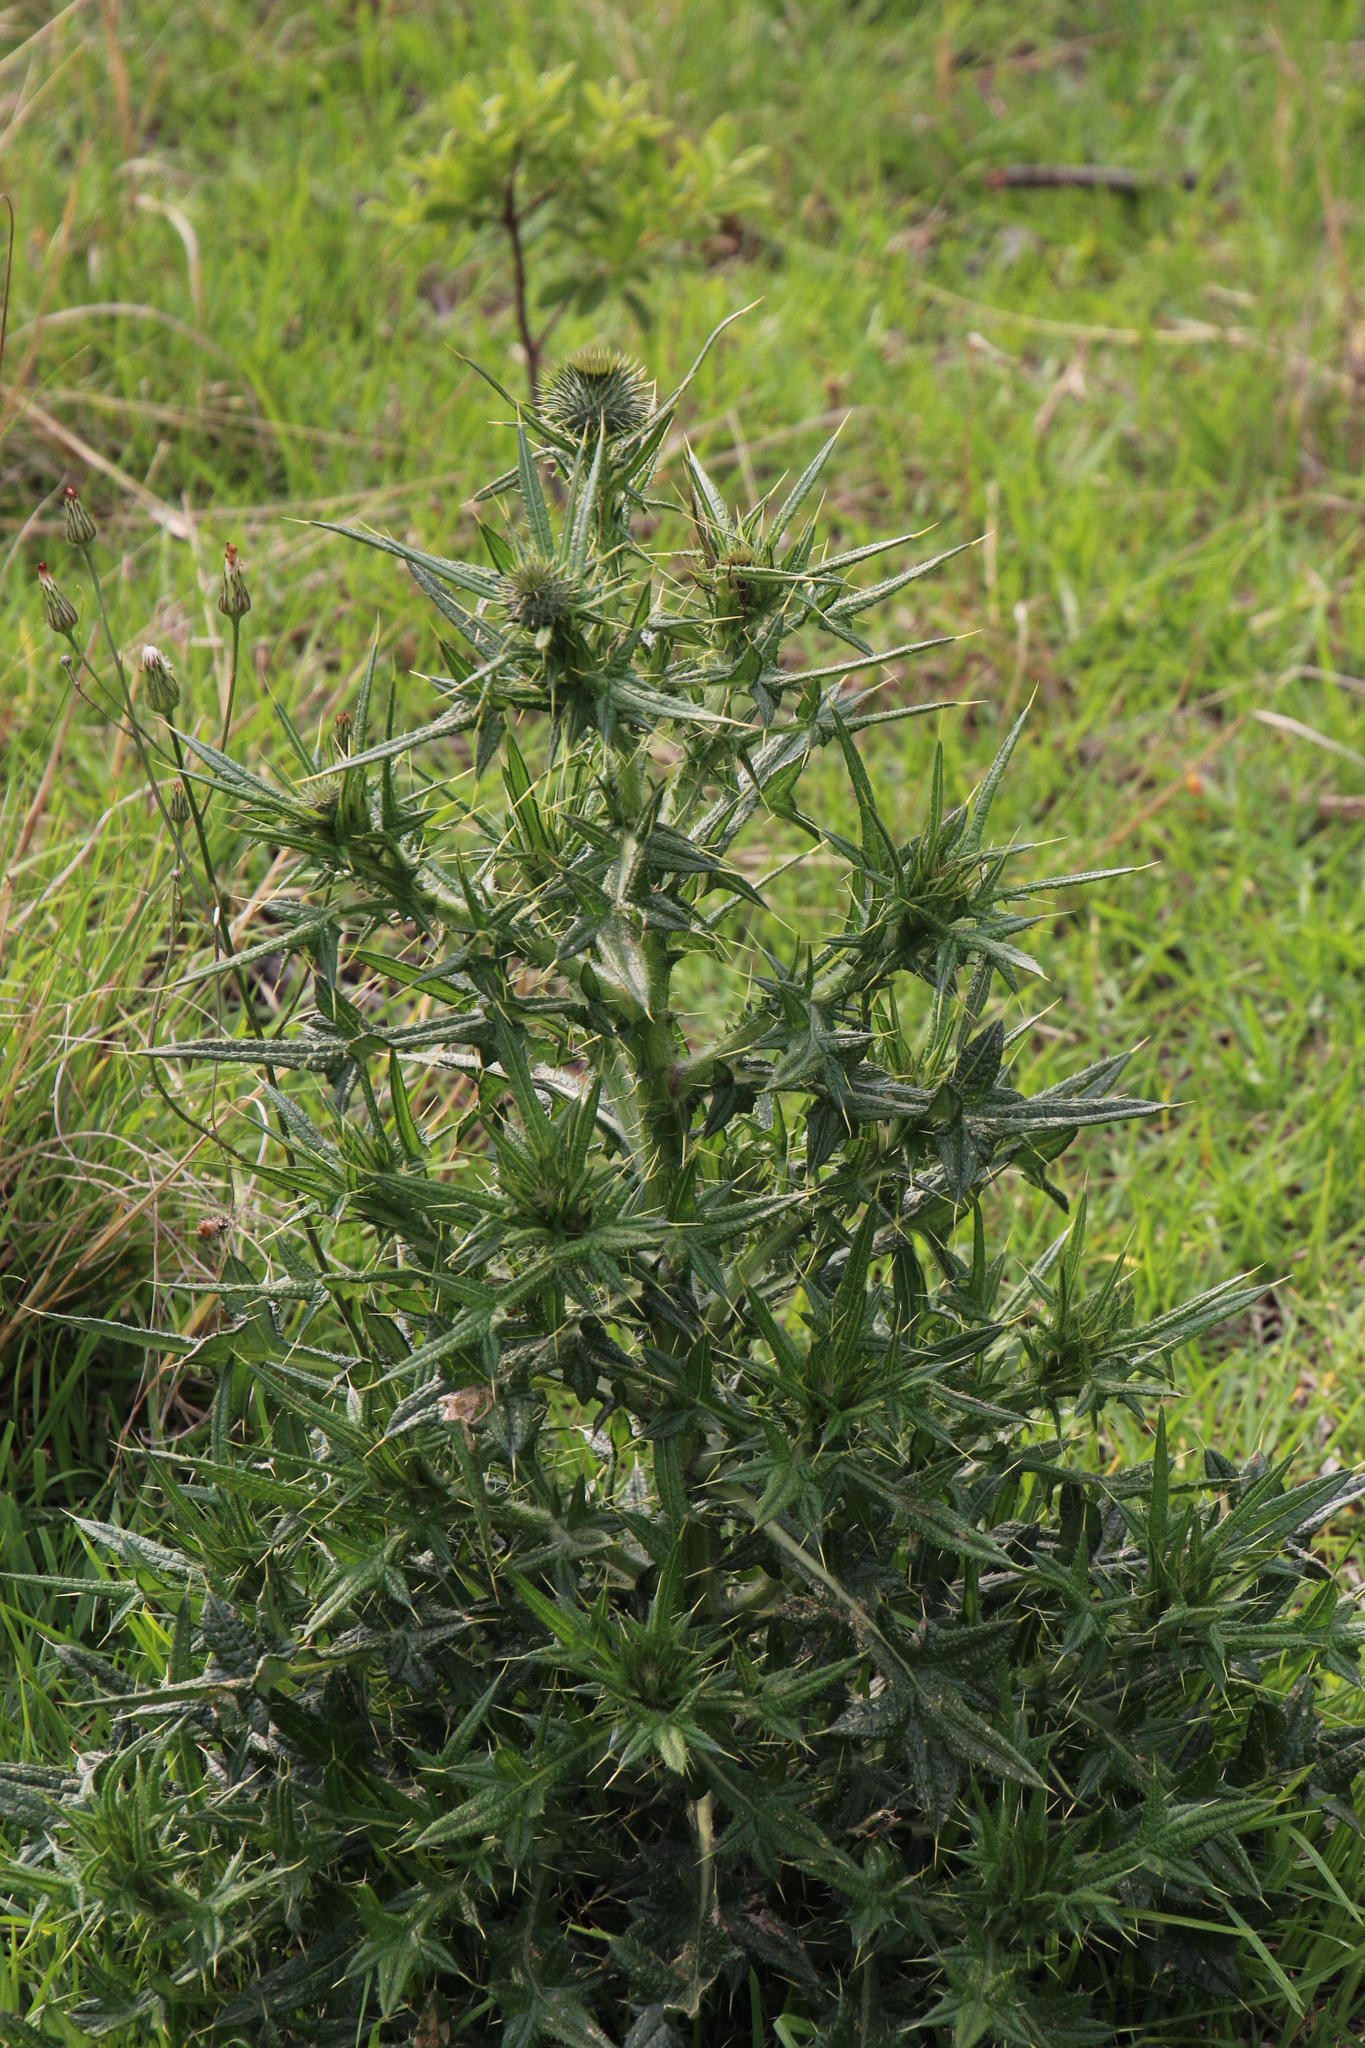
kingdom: Plantae
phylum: Tracheophyta
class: Magnoliopsida
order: Asterales
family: Asteraceae
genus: Cirsium
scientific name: Cirsium vulgare
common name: Bull thistle
